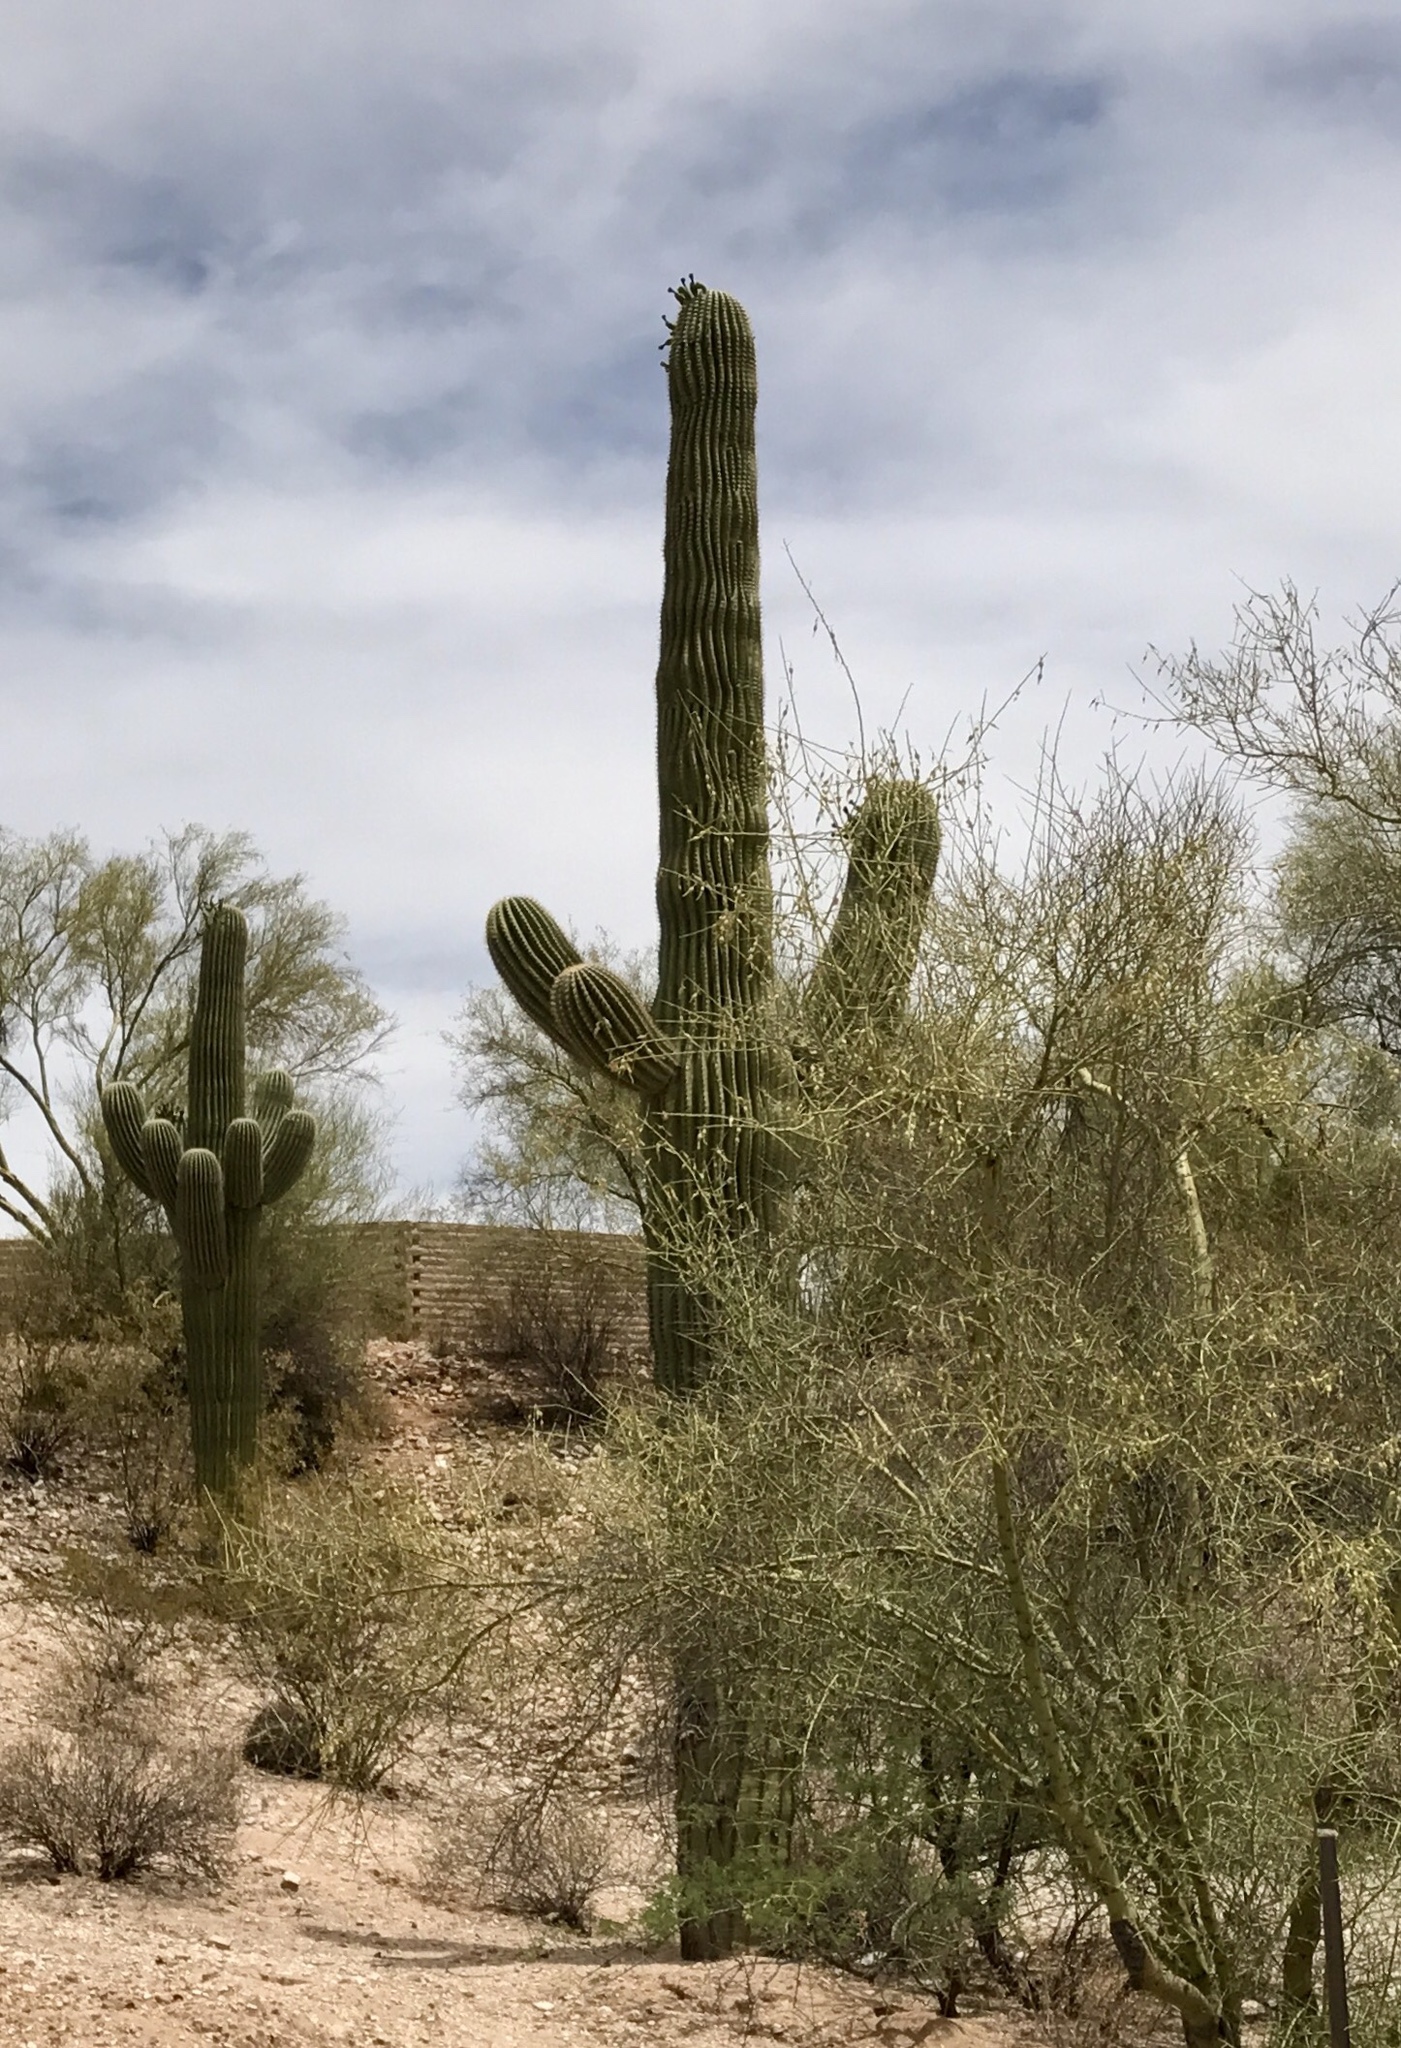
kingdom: Plantae
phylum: Tracheophyta
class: Magnoliopsida
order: Caryophyllales
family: Cactaceae
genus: Carnegiea
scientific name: Carnegiea gigantea
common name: Saguaro
